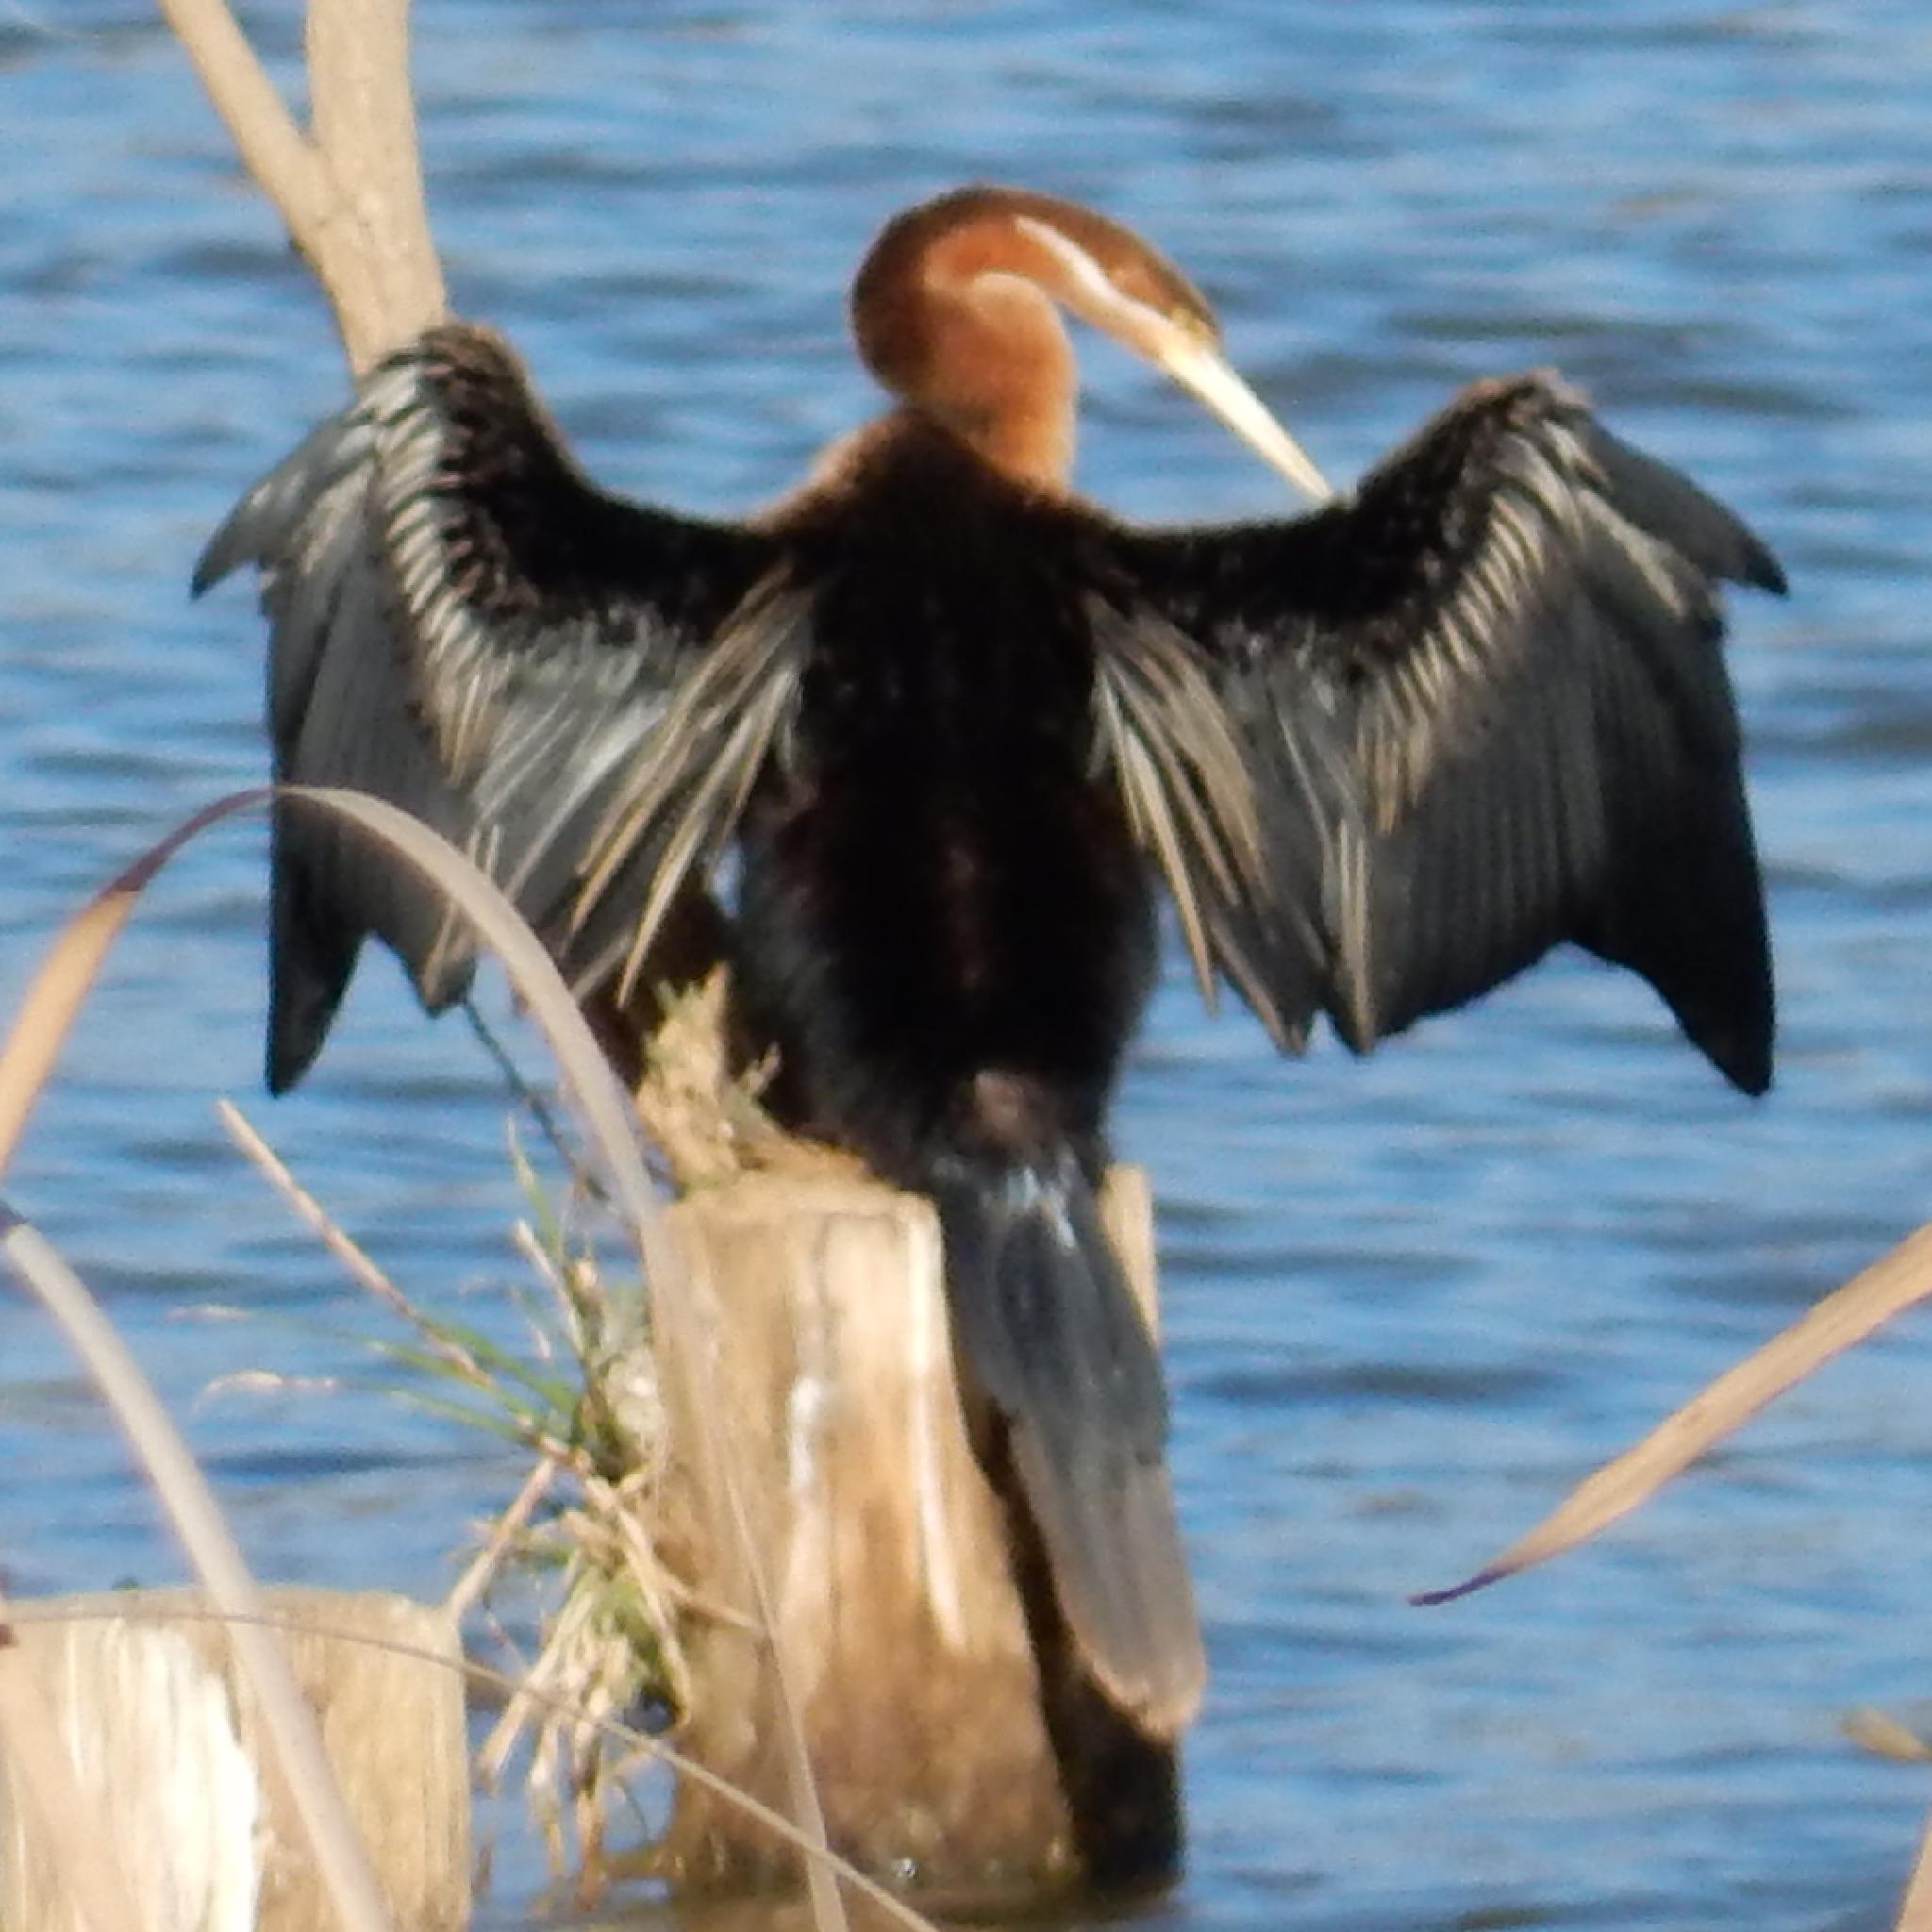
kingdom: Animalia
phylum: Chordata
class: Aves
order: Suliformes
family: Anhingidae
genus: Anhinga
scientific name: Anhinga rufa
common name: African darter
